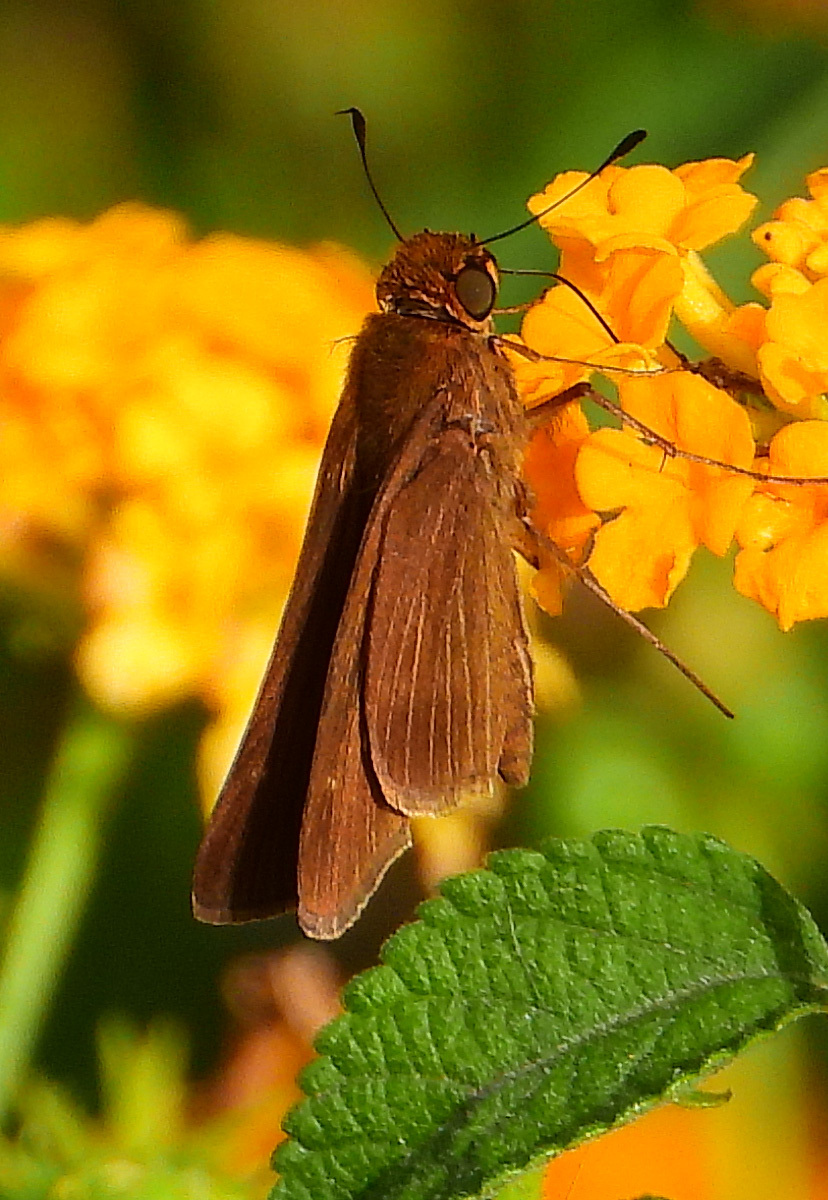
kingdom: Animalia
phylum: Arthropoda
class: Insecta
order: Lepidoptera
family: Hesperiidae
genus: Panoquina
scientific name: Panoquina ocola
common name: Ocola skipper
